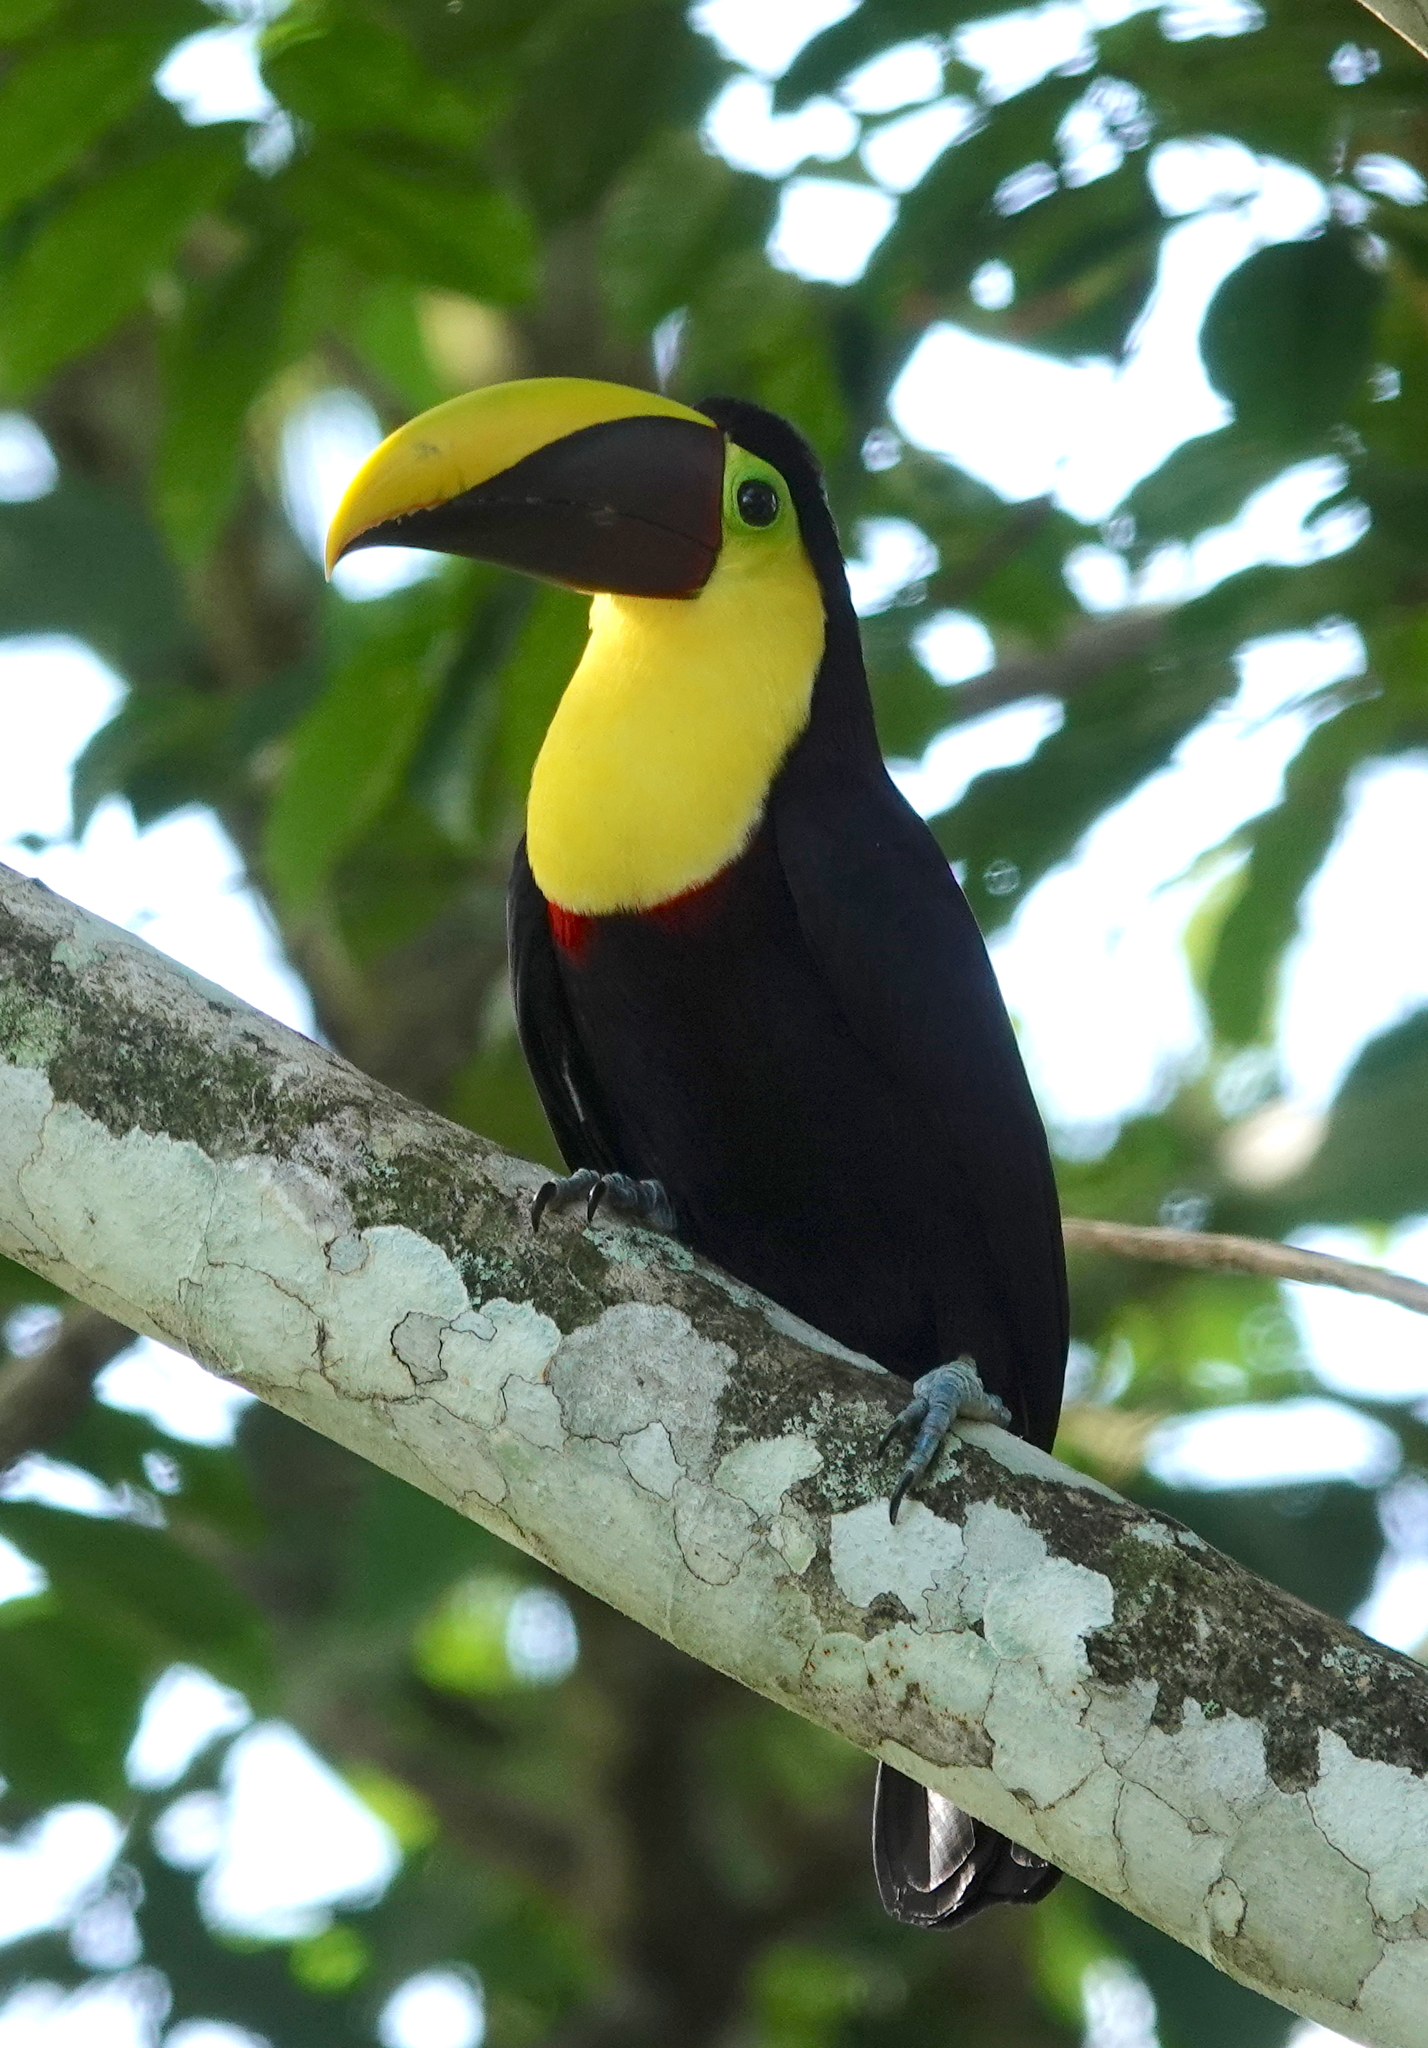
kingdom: Animalia
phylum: Chordata
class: Aves
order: Piciformes
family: Ramphastidae
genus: Ramphastos
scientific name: Ramphastos ambiguus
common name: Yellow-throated toucan
